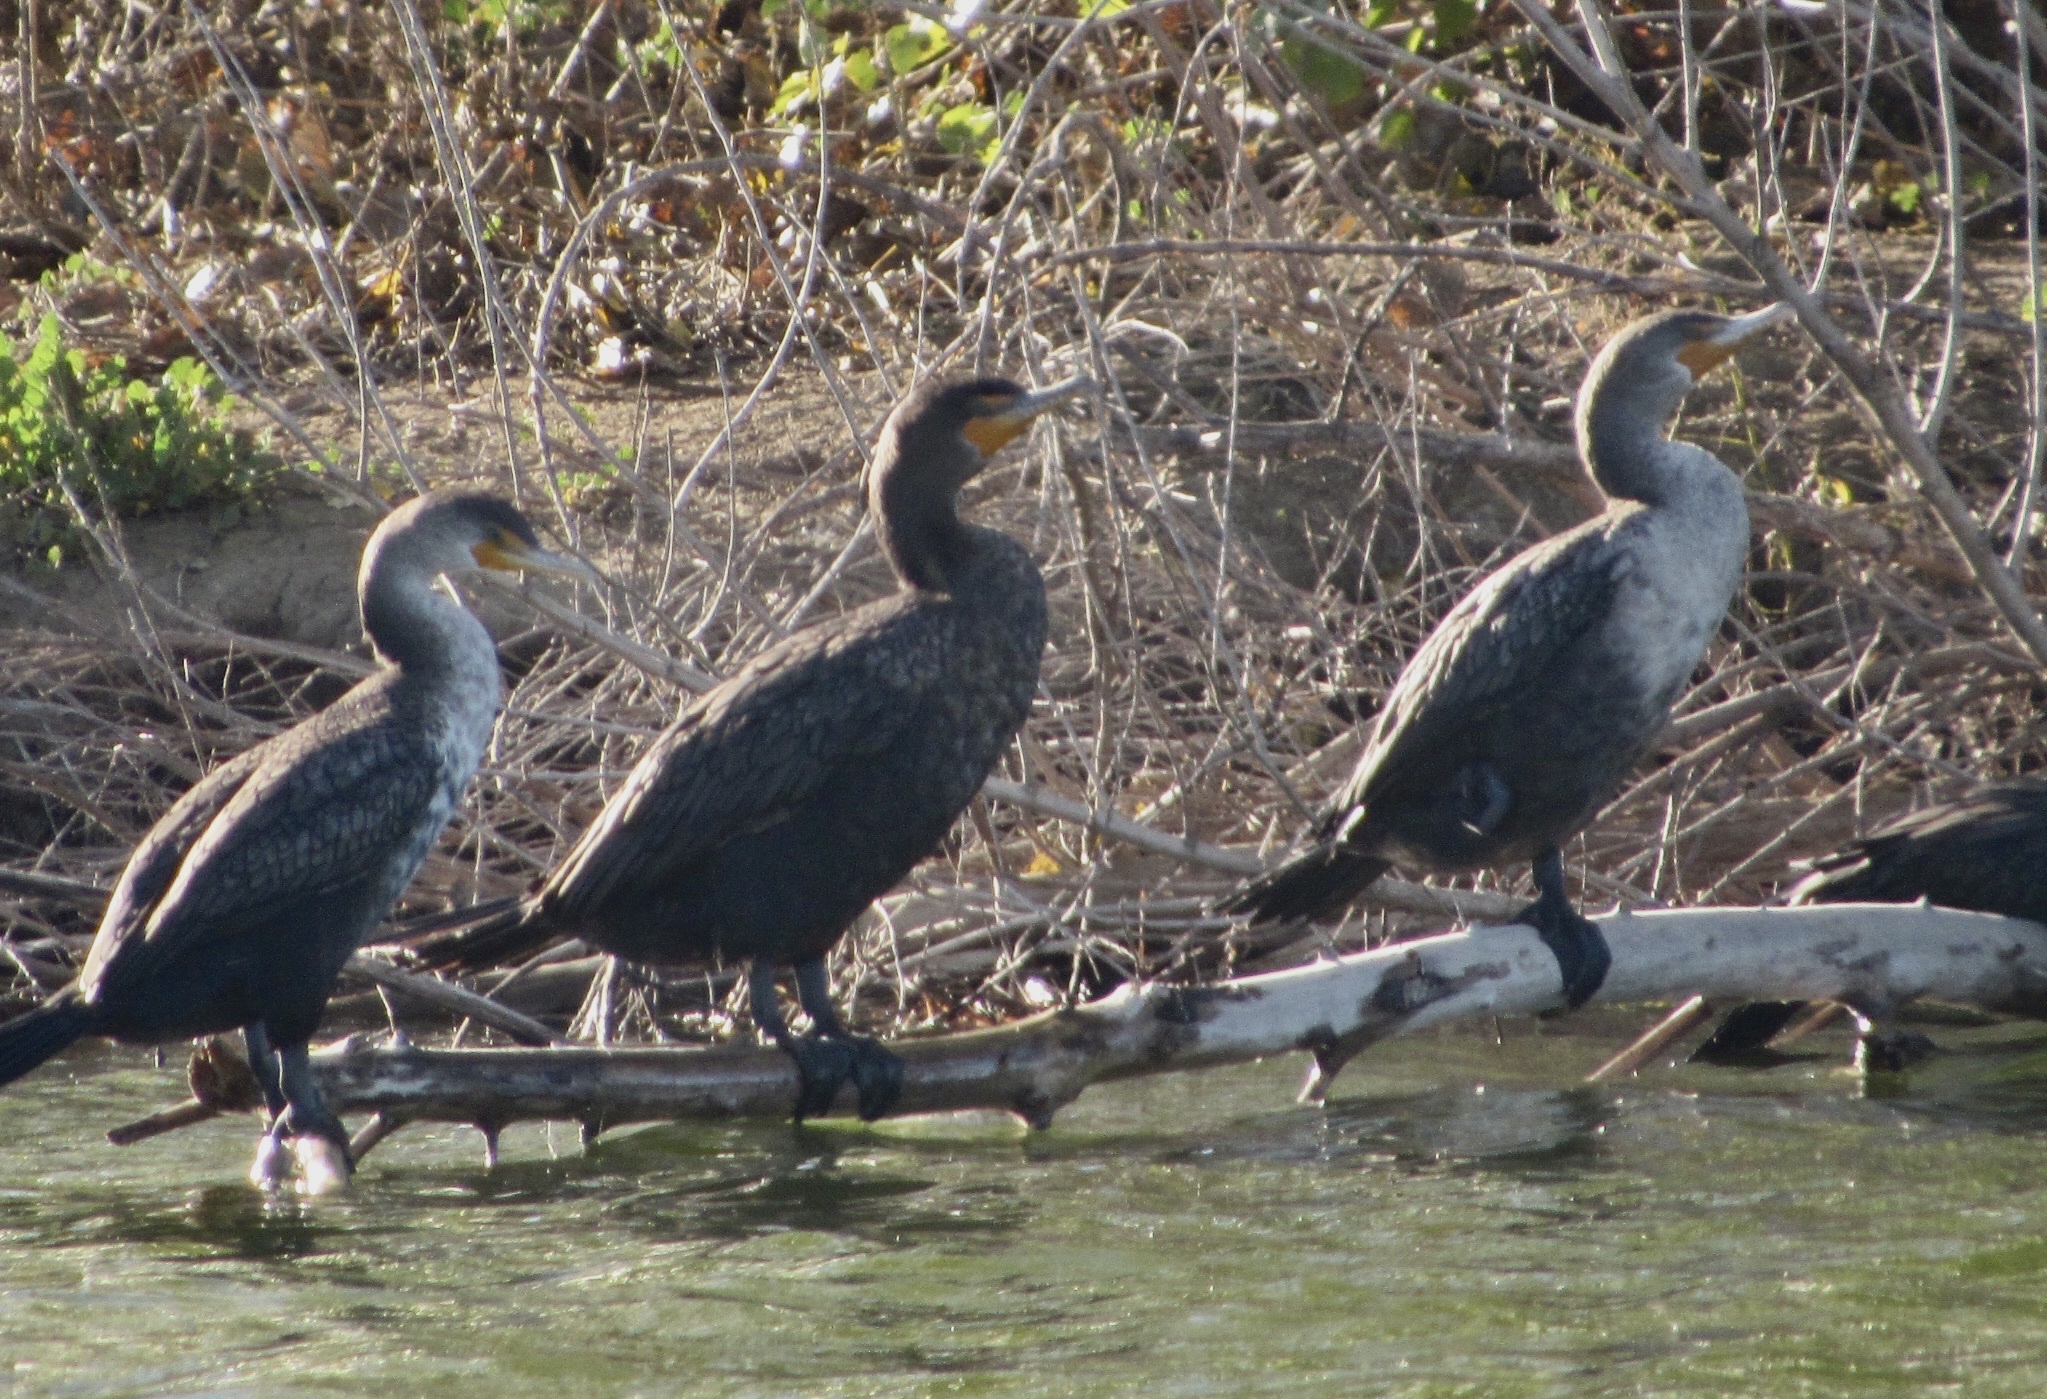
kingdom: Animalia
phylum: Chordata
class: Aves
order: Suliformes
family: Phalacrocoracidae
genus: Phalacrocorax
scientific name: Phalacrocorax auritus
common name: Double-crested cormorant
